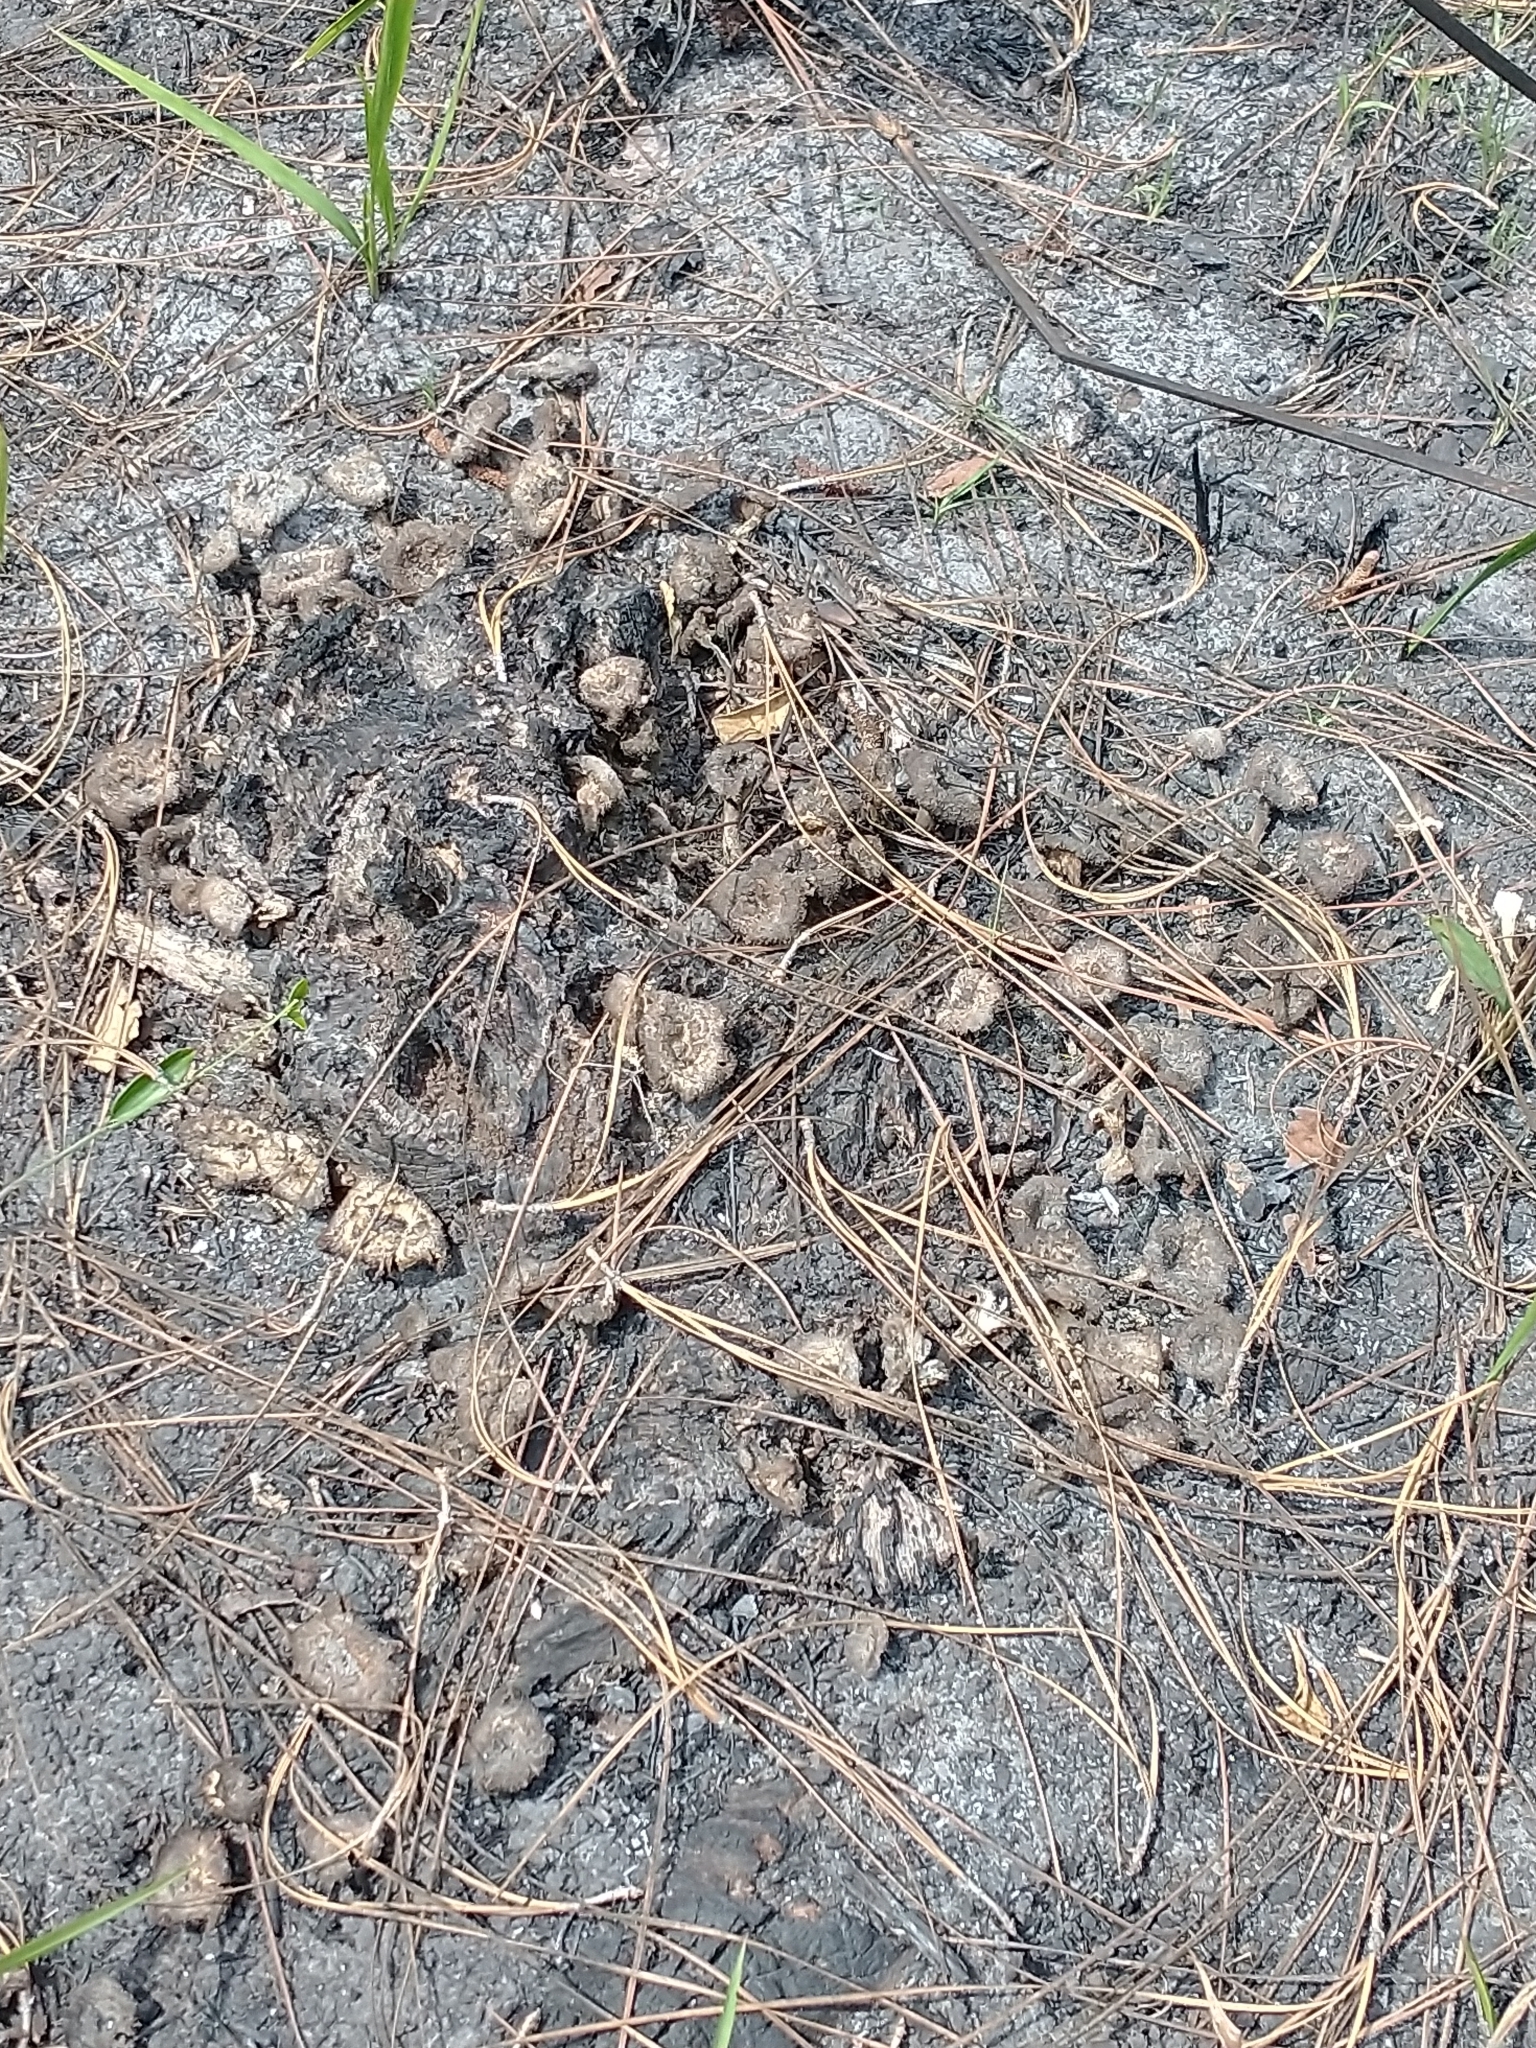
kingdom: Fungi
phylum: Basidiomycota
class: Agaricomycetes
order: Polyporales
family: Polyporaceae
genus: Lentinus
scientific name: Lentinus crinitus
